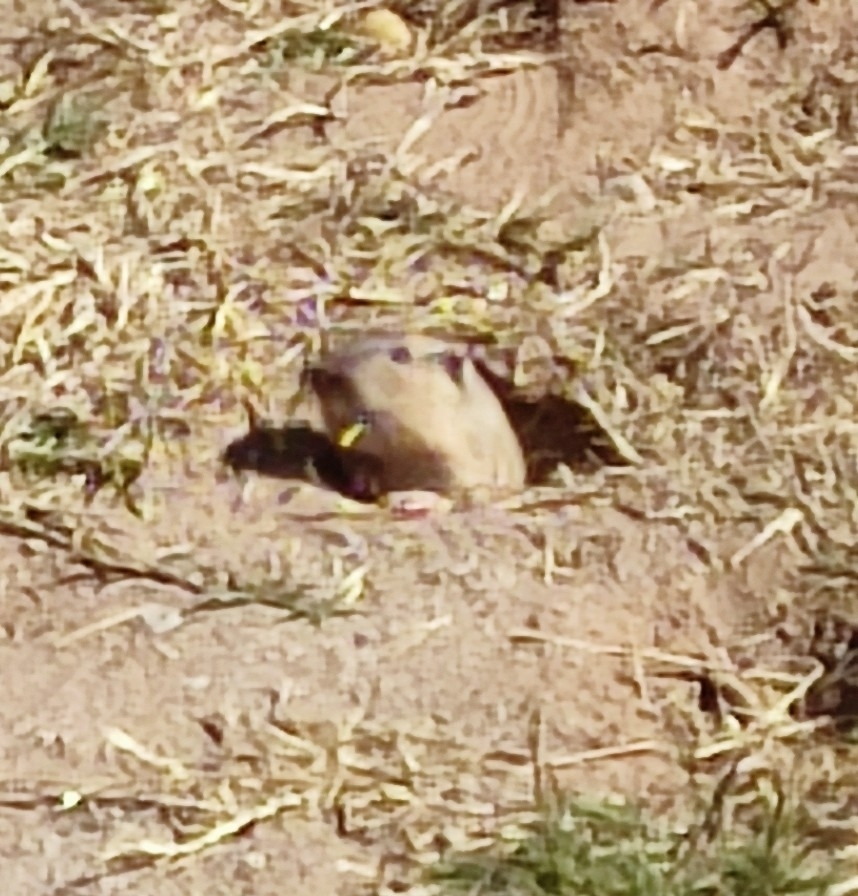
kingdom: Animalia
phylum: Chordata
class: Mammalia
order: Rodentia
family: Geomyidae
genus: Thomomys
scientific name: Thomomys bottae
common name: Botta's pocket gopher
